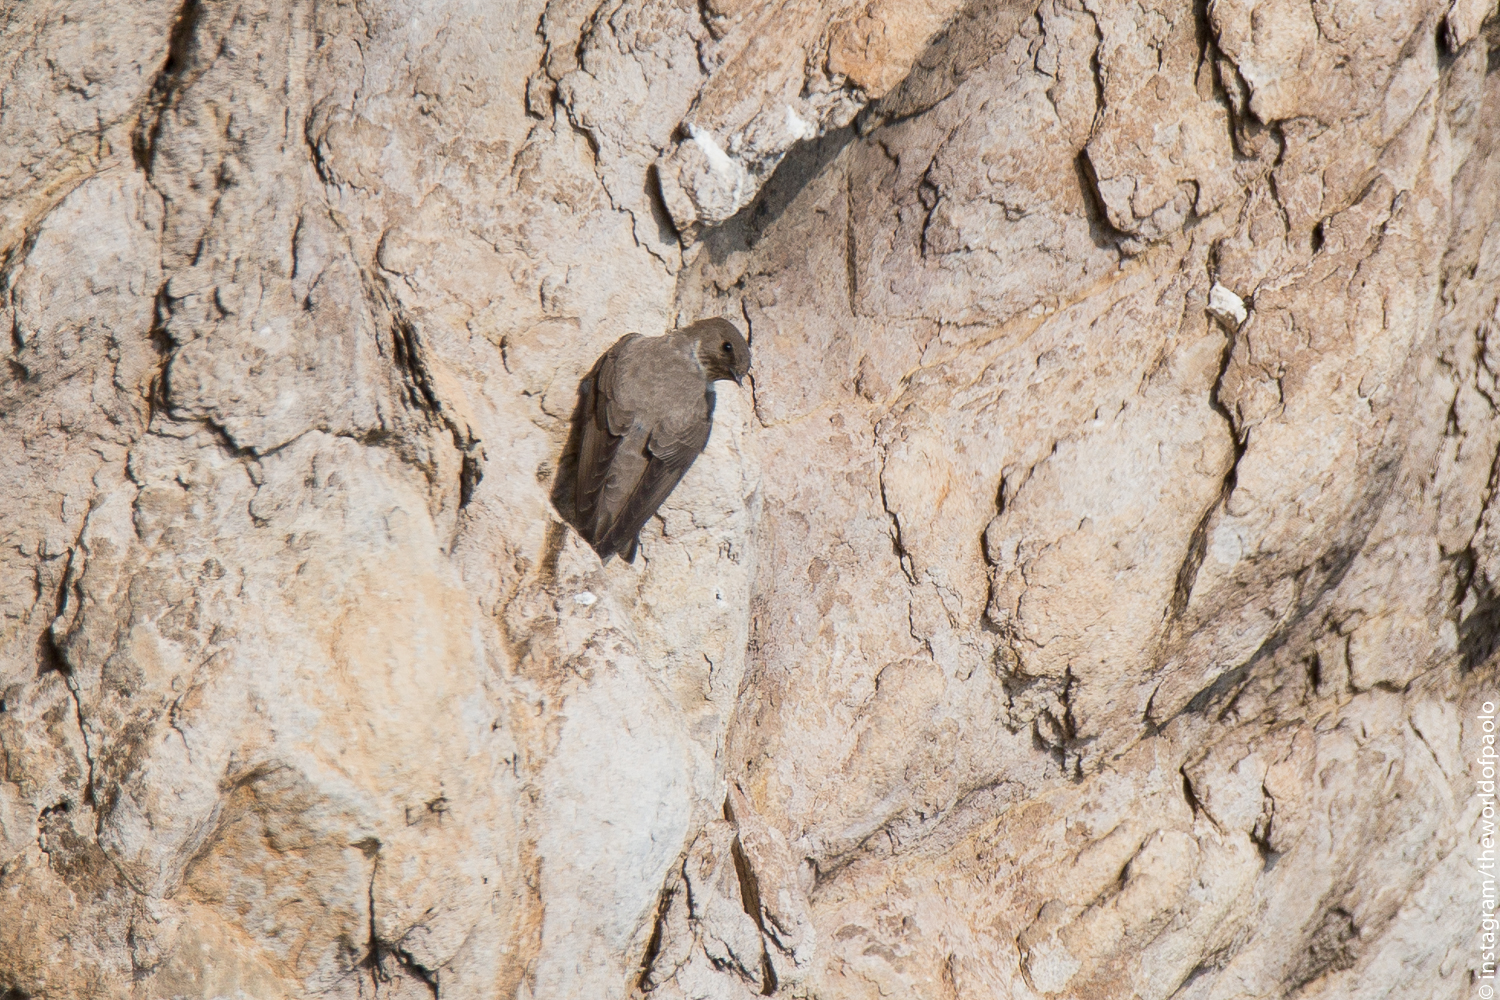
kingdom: Animalia
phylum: Chordata
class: Aves
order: Passeriformes
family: Hirundinidae
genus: Ptyonoprogne
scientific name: Ptyonoprogne rupestris
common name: Eurasian crag martin
